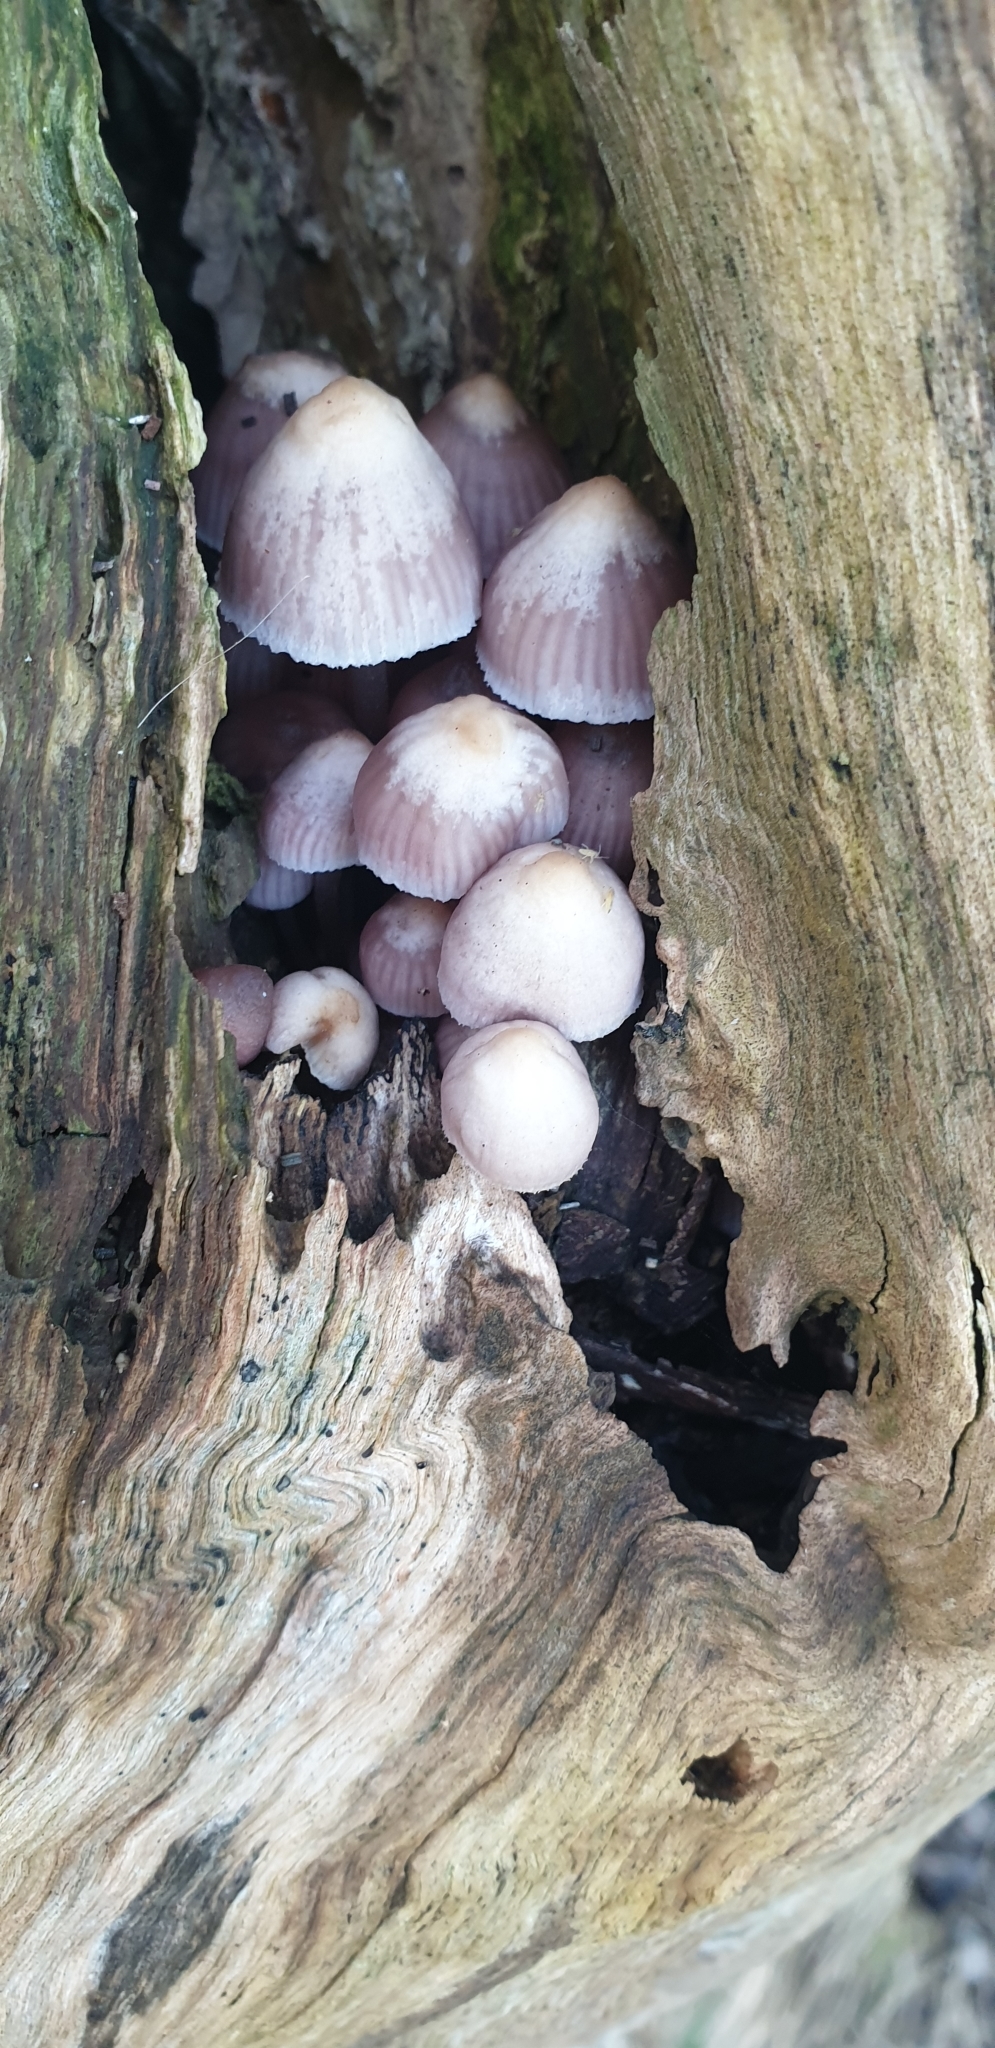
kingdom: Fungi
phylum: Basidiomycota
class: Agaricomycetes
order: Agaricales
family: Mycenaceae
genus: Mycena
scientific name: Mycena clarkeana
